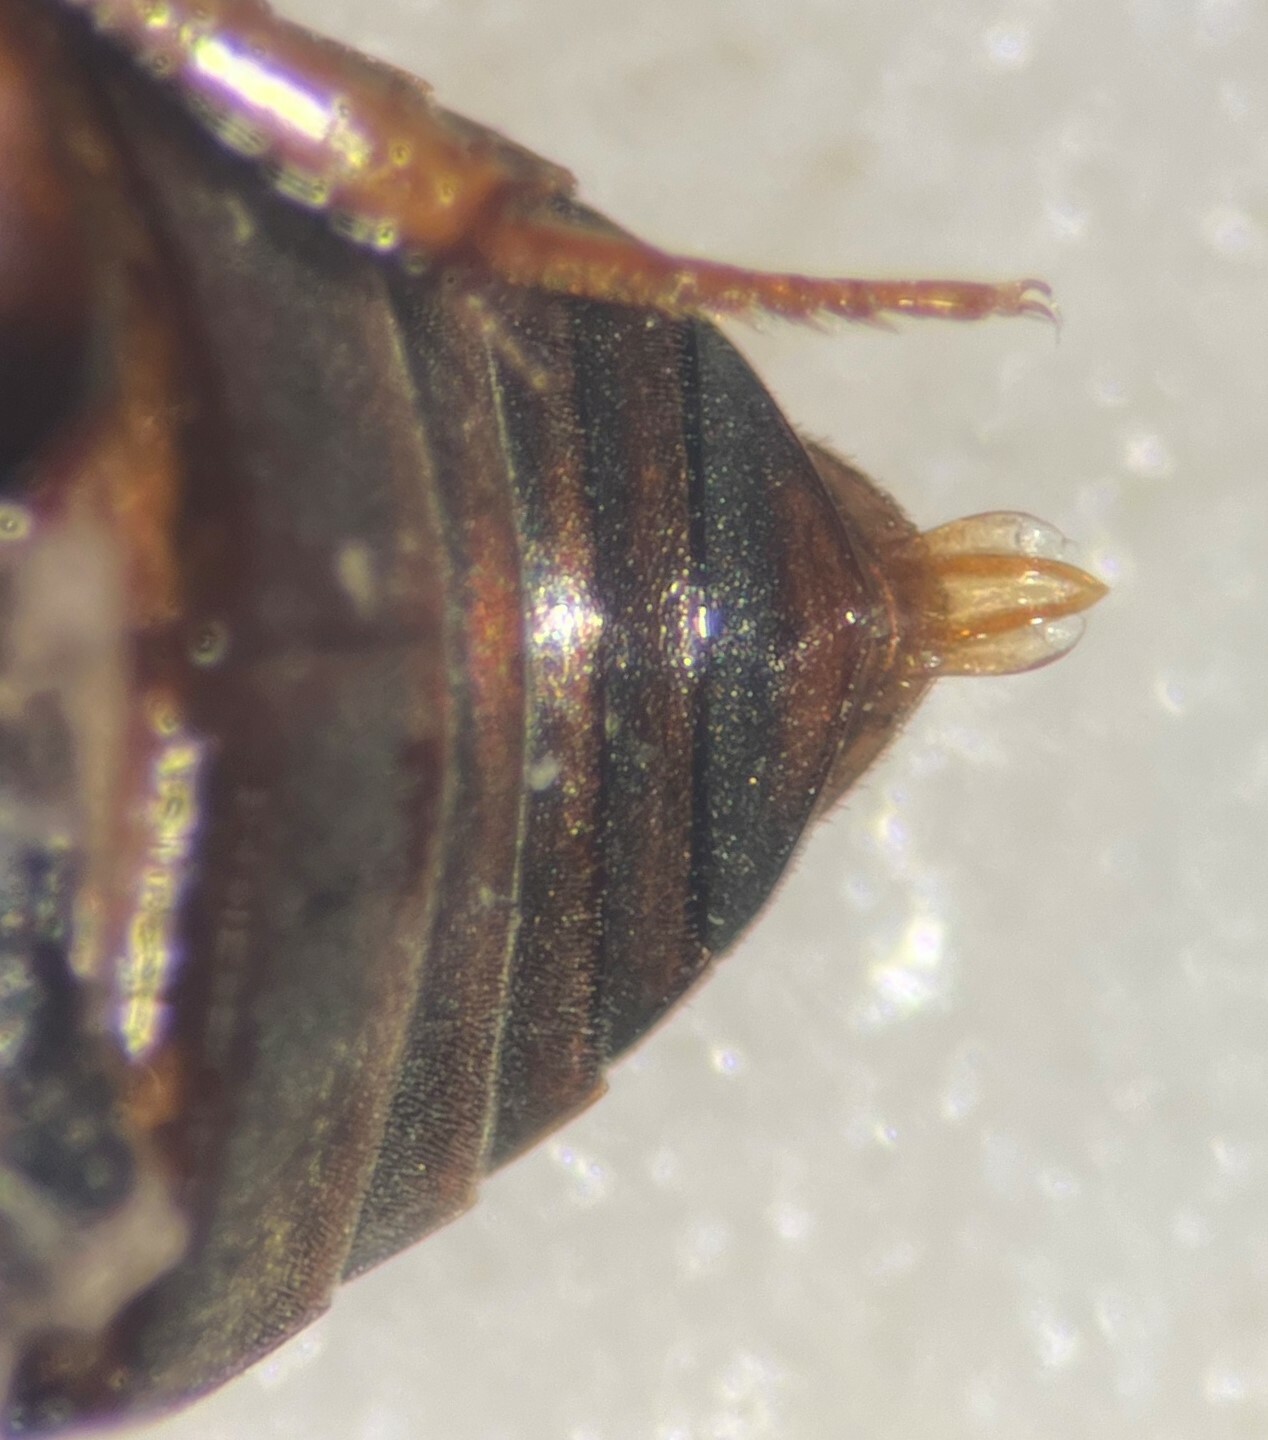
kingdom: Animalia
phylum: Arthropoda
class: Insecta
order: Coleoptera
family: Hydrophilidae
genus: Cercyon
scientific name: Cercyon praetextatus
